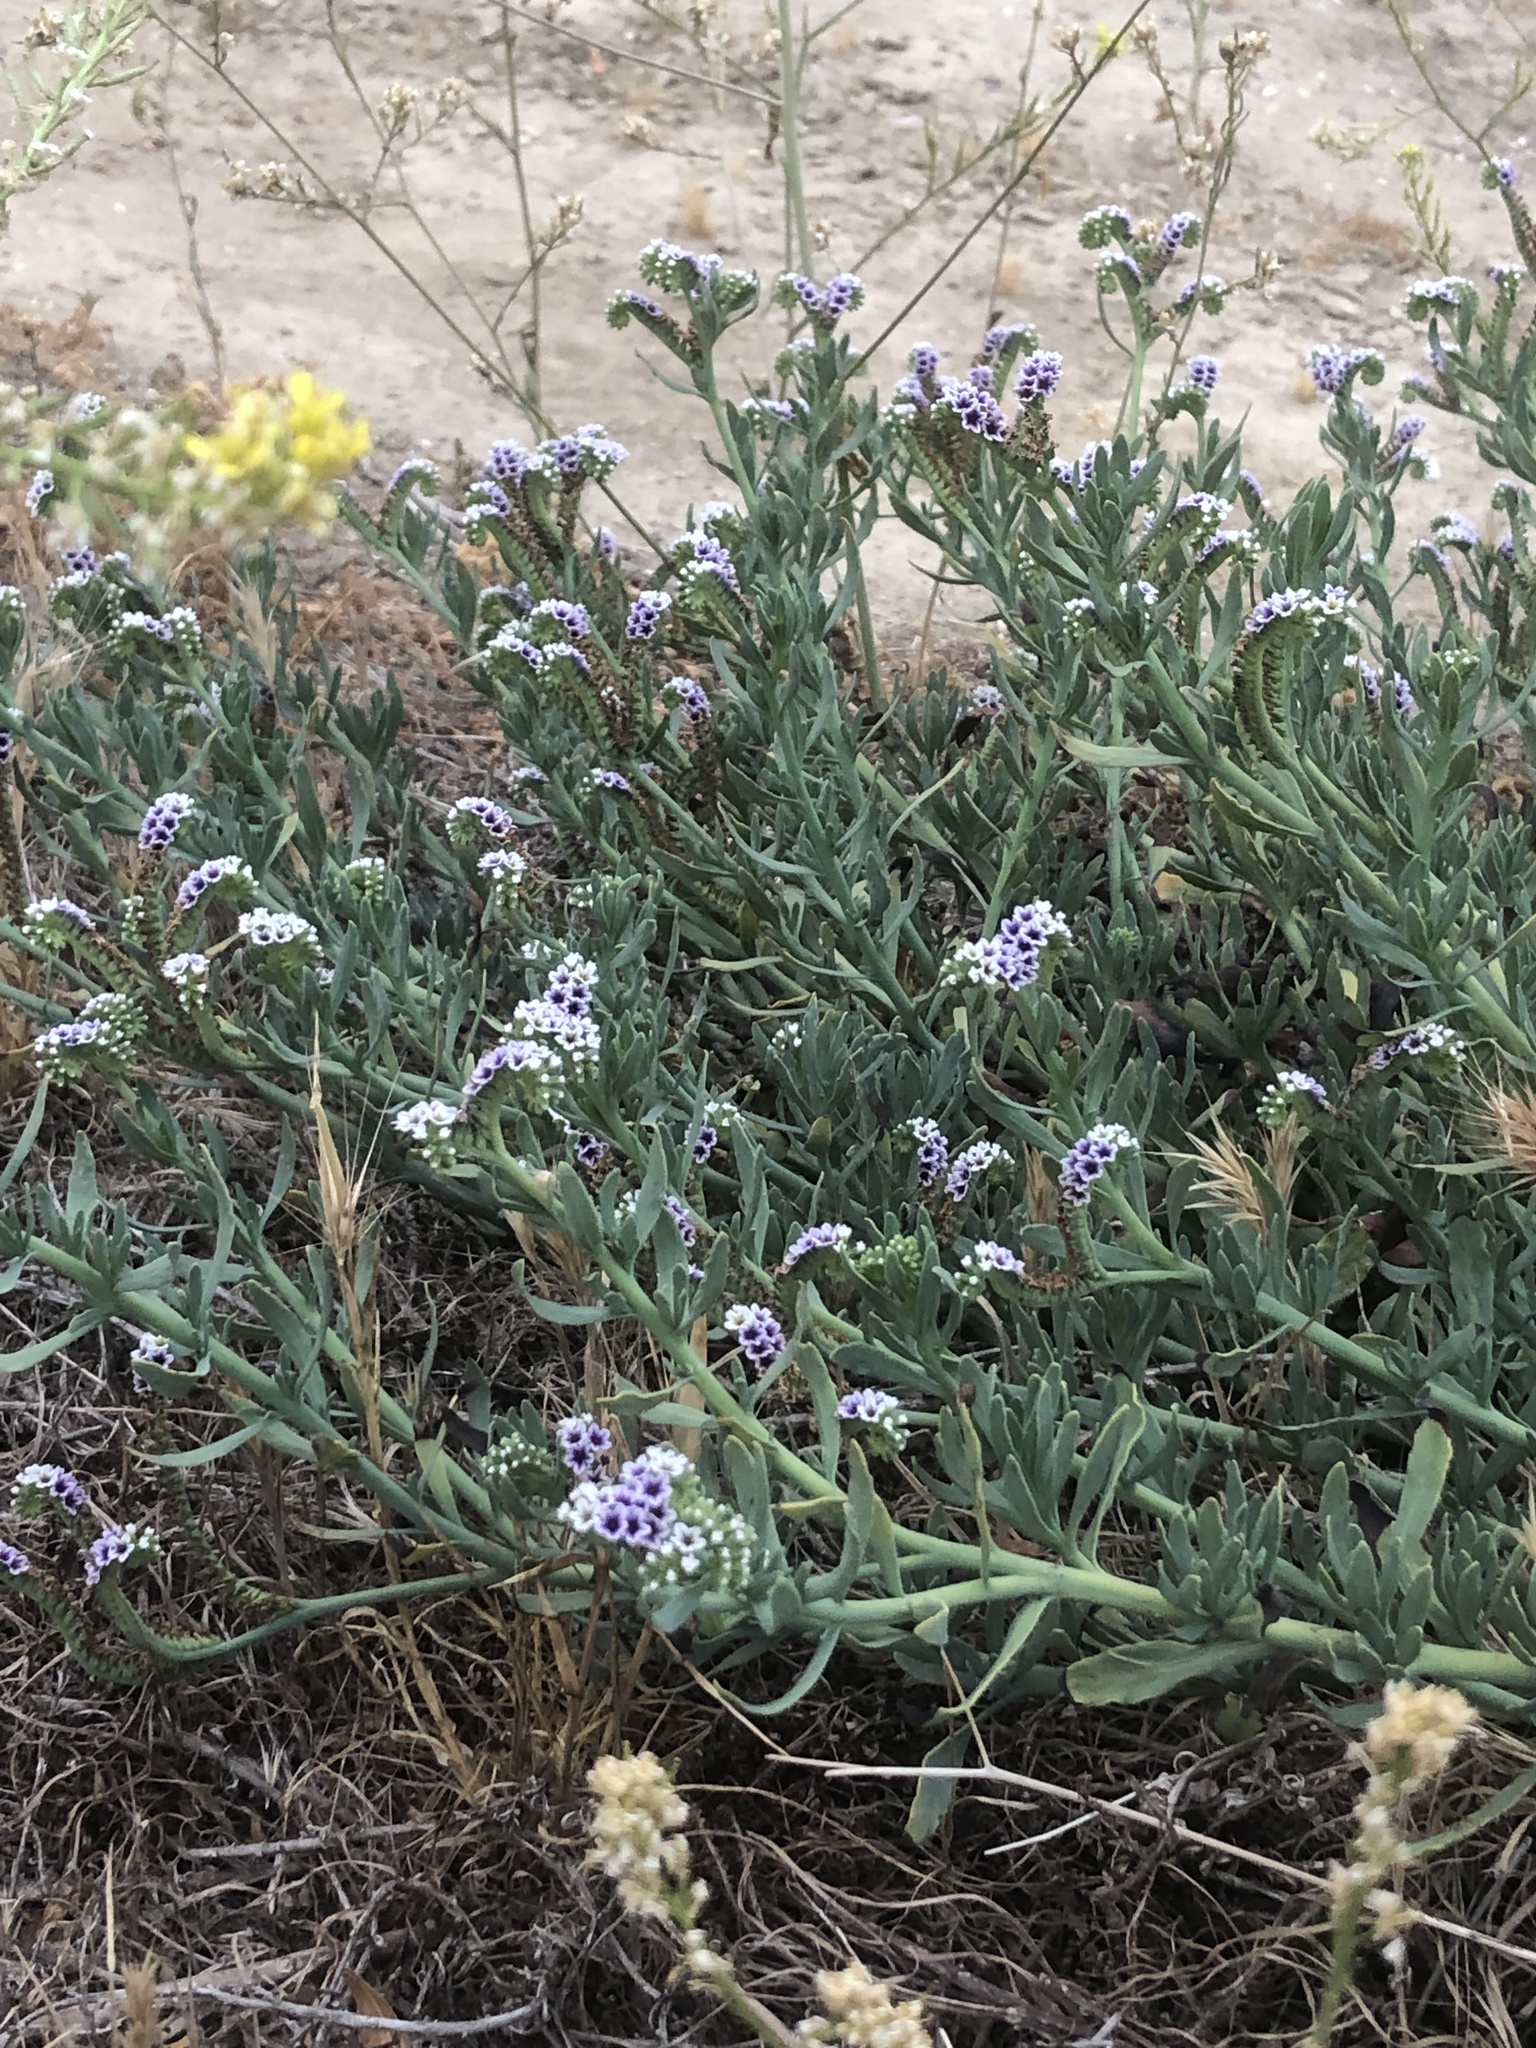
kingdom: Plantae
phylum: Tracheophyta
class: Magnoliopsida
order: Boraginales
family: Heliotropiaceae
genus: Heliotropium
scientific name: Heliotropium curassavicum
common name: Seaside heliotrope
